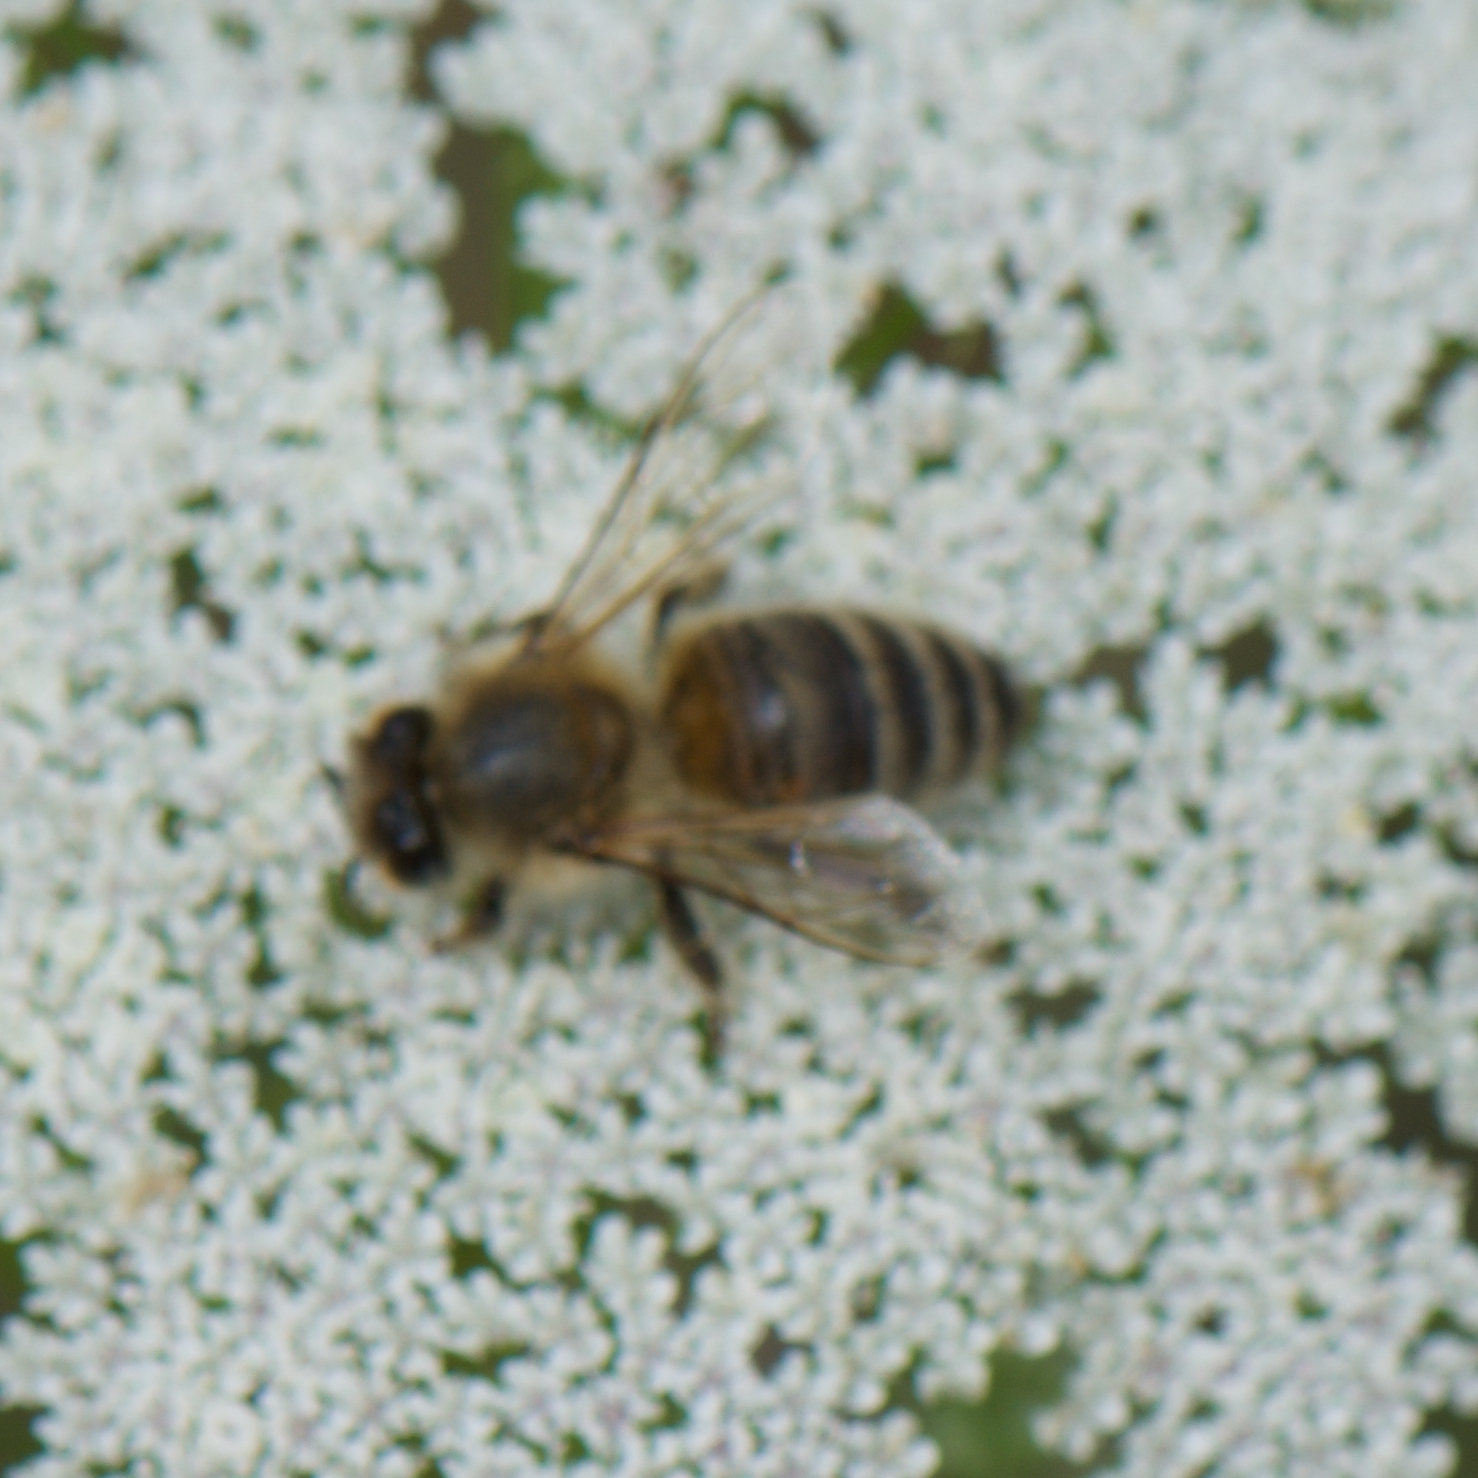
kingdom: Animalia
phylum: Arthropoda
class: Insecta
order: Hymenoptera
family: Apidae
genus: Apis
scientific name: Apis mellifera
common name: Honey bee
